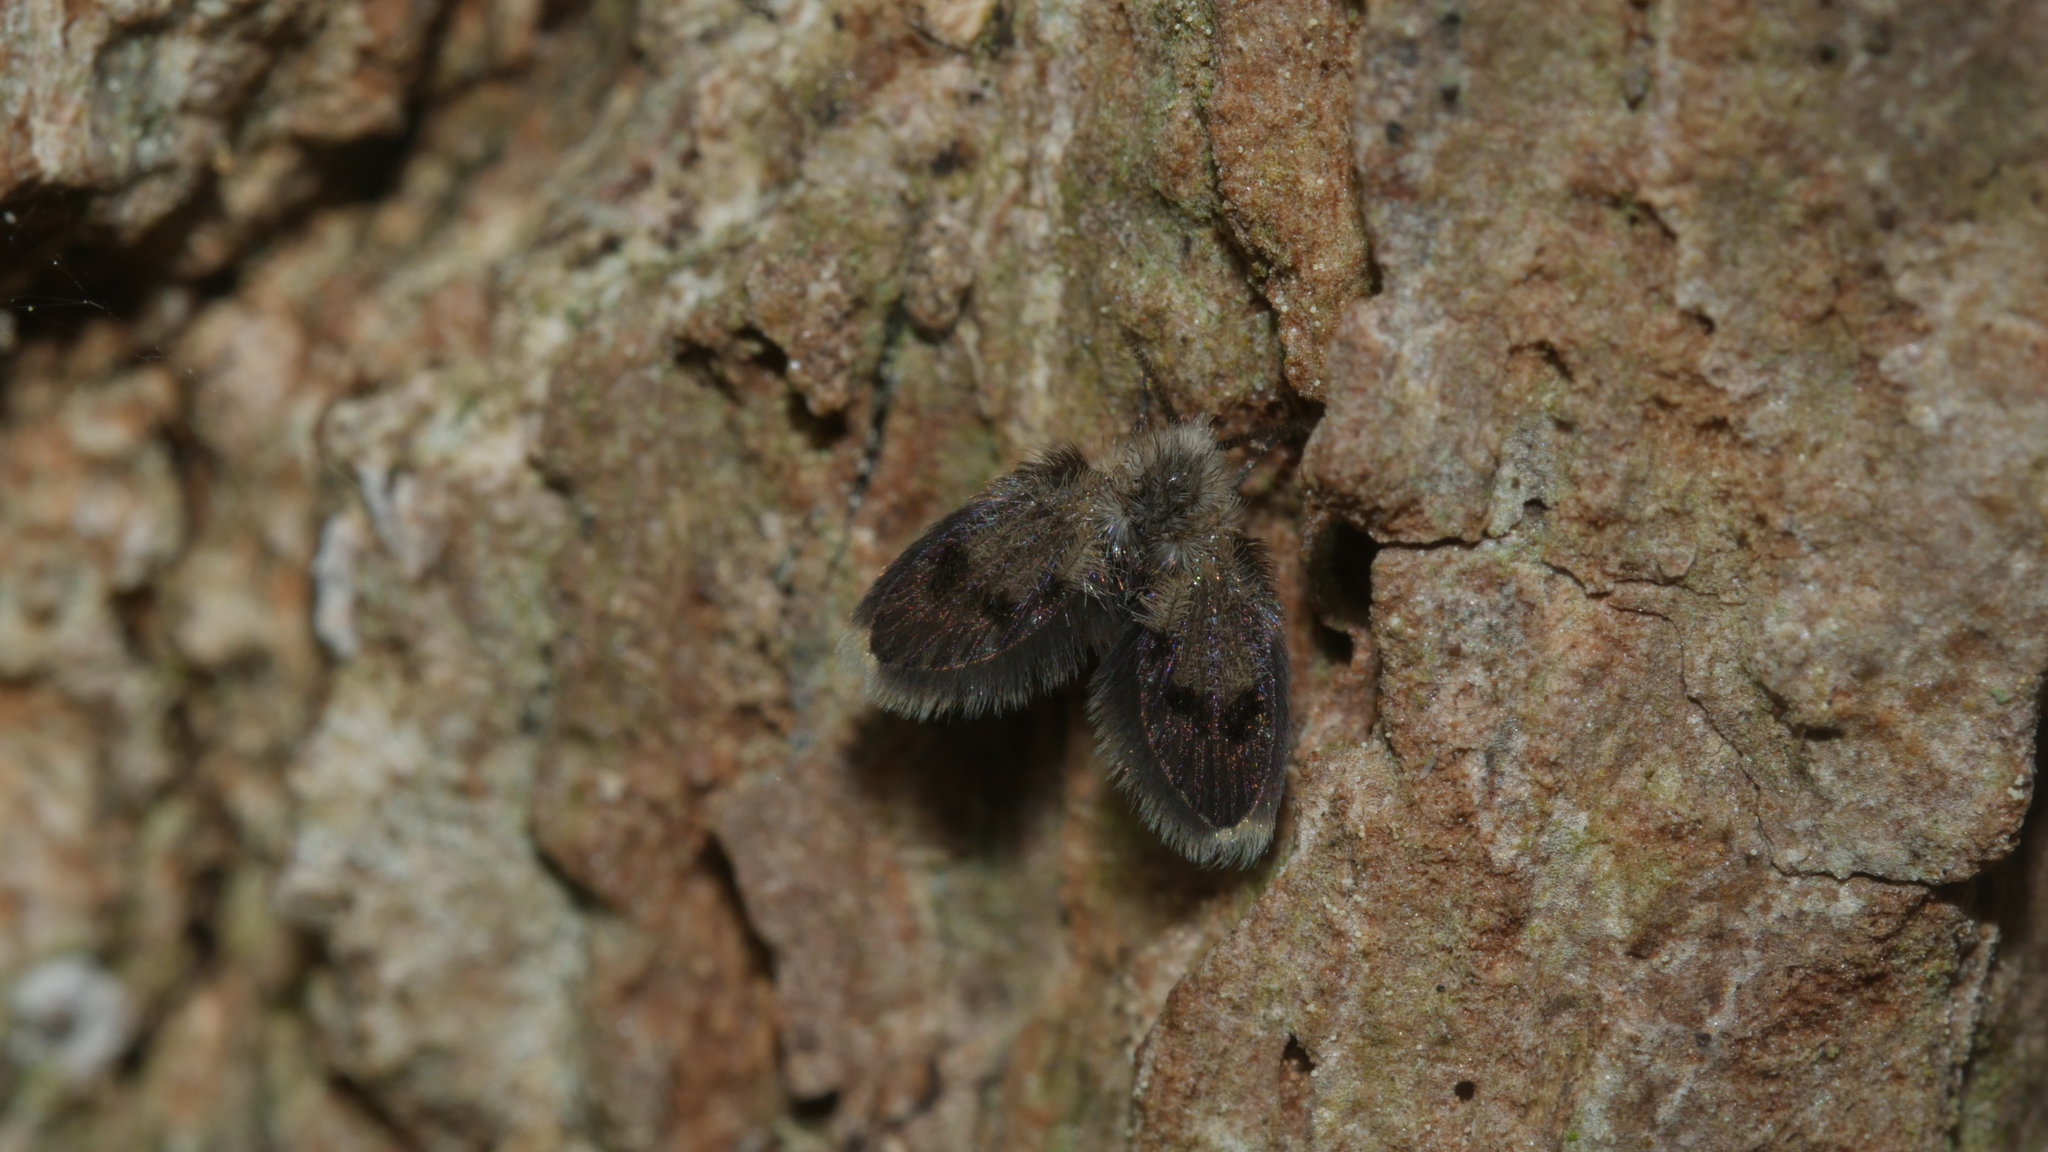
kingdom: Animalia
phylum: Arthropoda
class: Insecta
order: Diptera
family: Psychodidae
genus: Lepiseodina
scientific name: Lepiseodina
